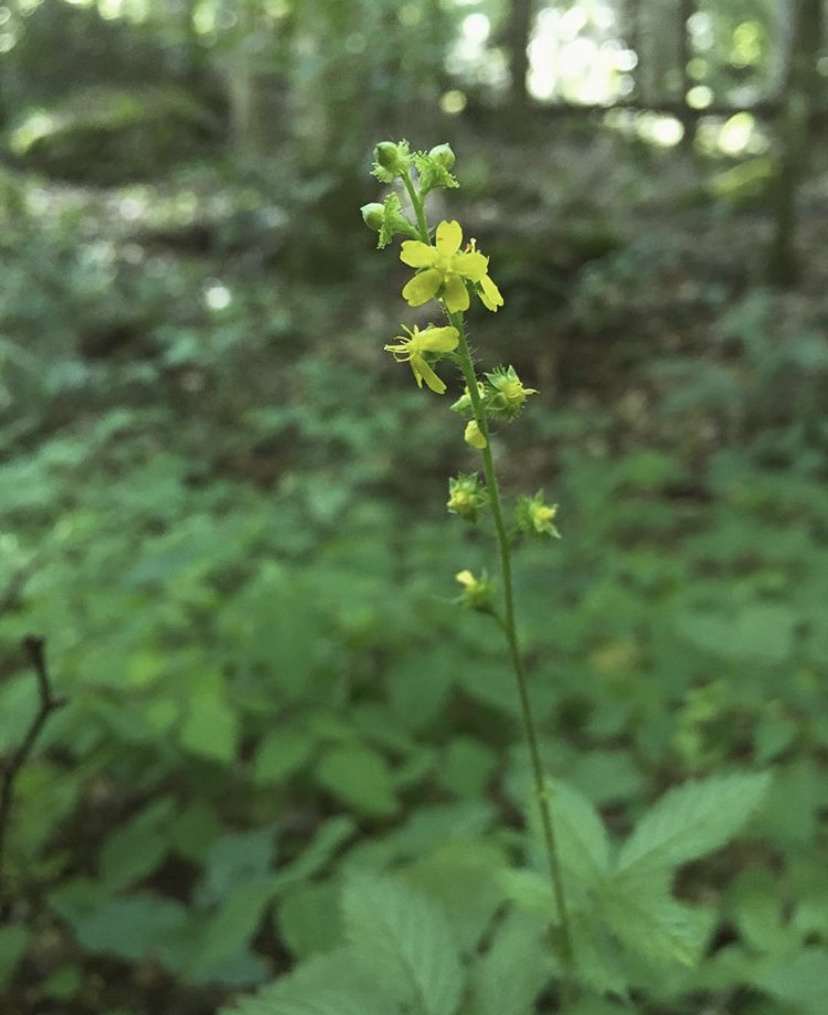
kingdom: Plantae
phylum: Tracheophyta
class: Magnoliopsida
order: Rosales
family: Rosaceae
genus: Agrimonia
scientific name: Agrimonia gryposepala
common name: Common agrimony
